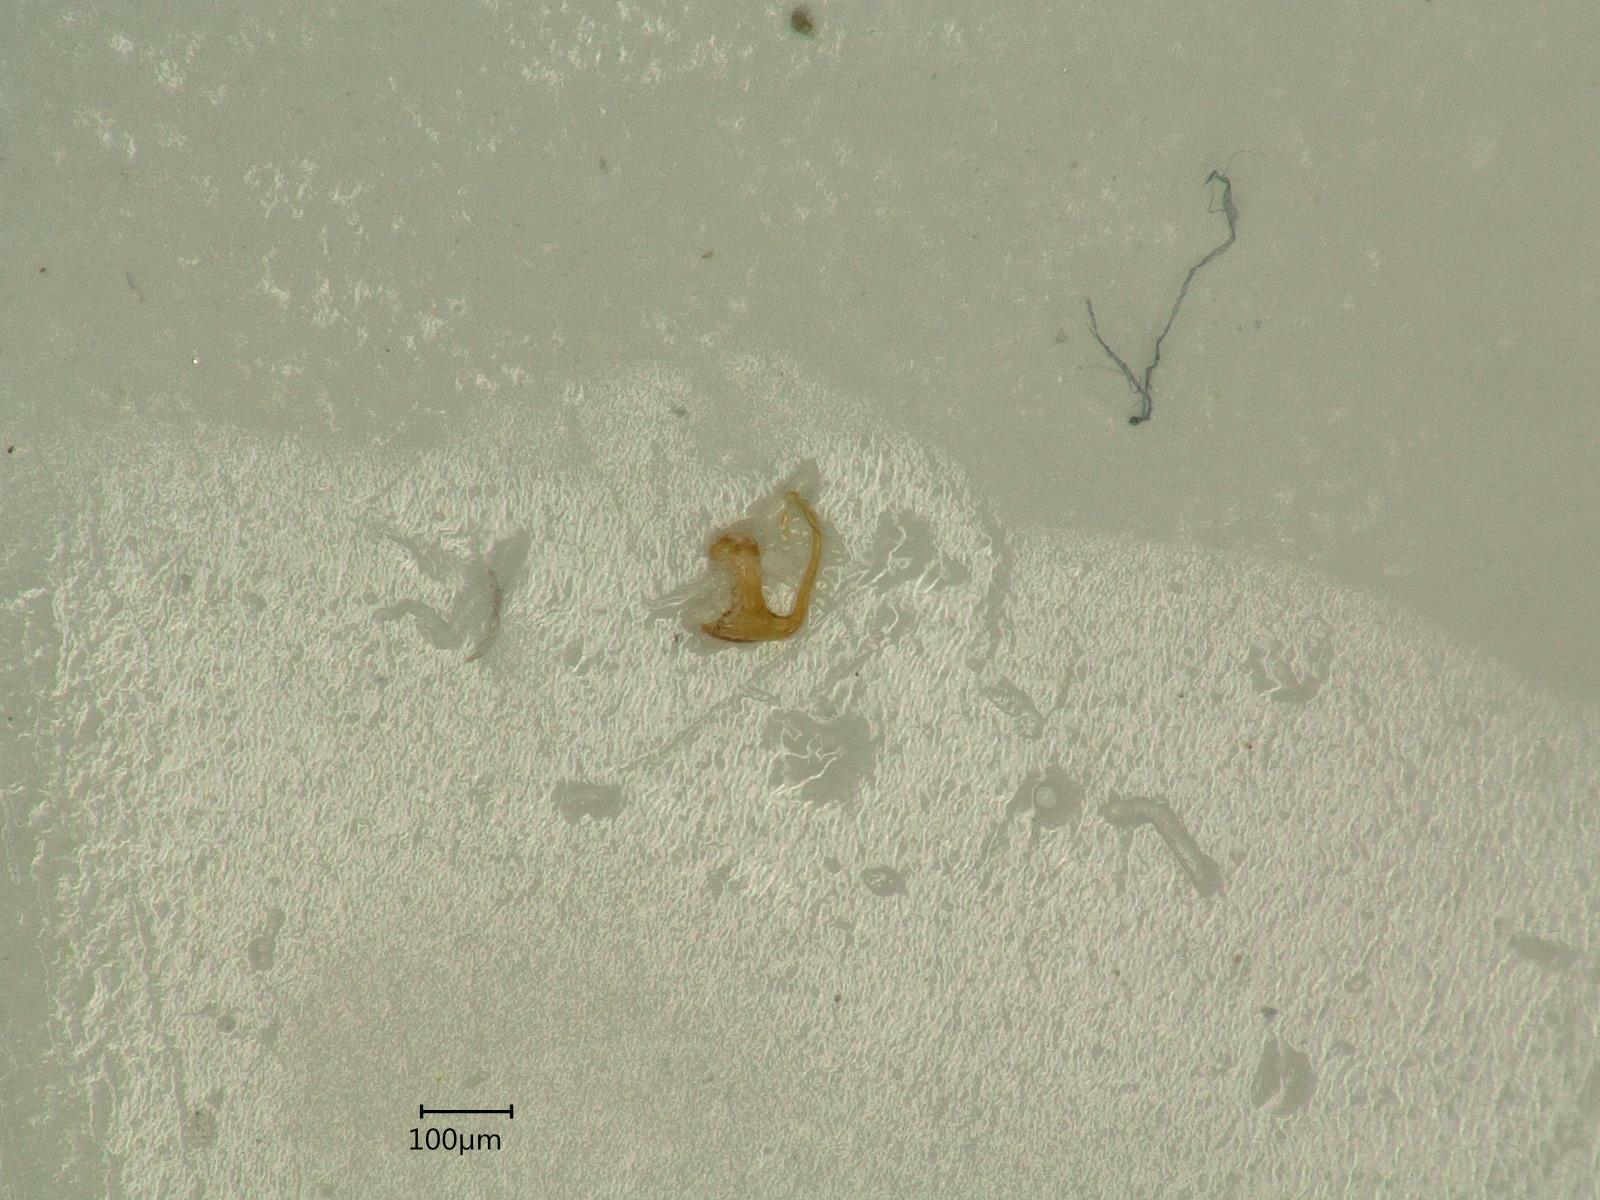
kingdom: Animalia
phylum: Arthropoda
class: Insecta
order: Hemiptera
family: Cicadellidae
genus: Eupteryx
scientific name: Eupteryx urticae
